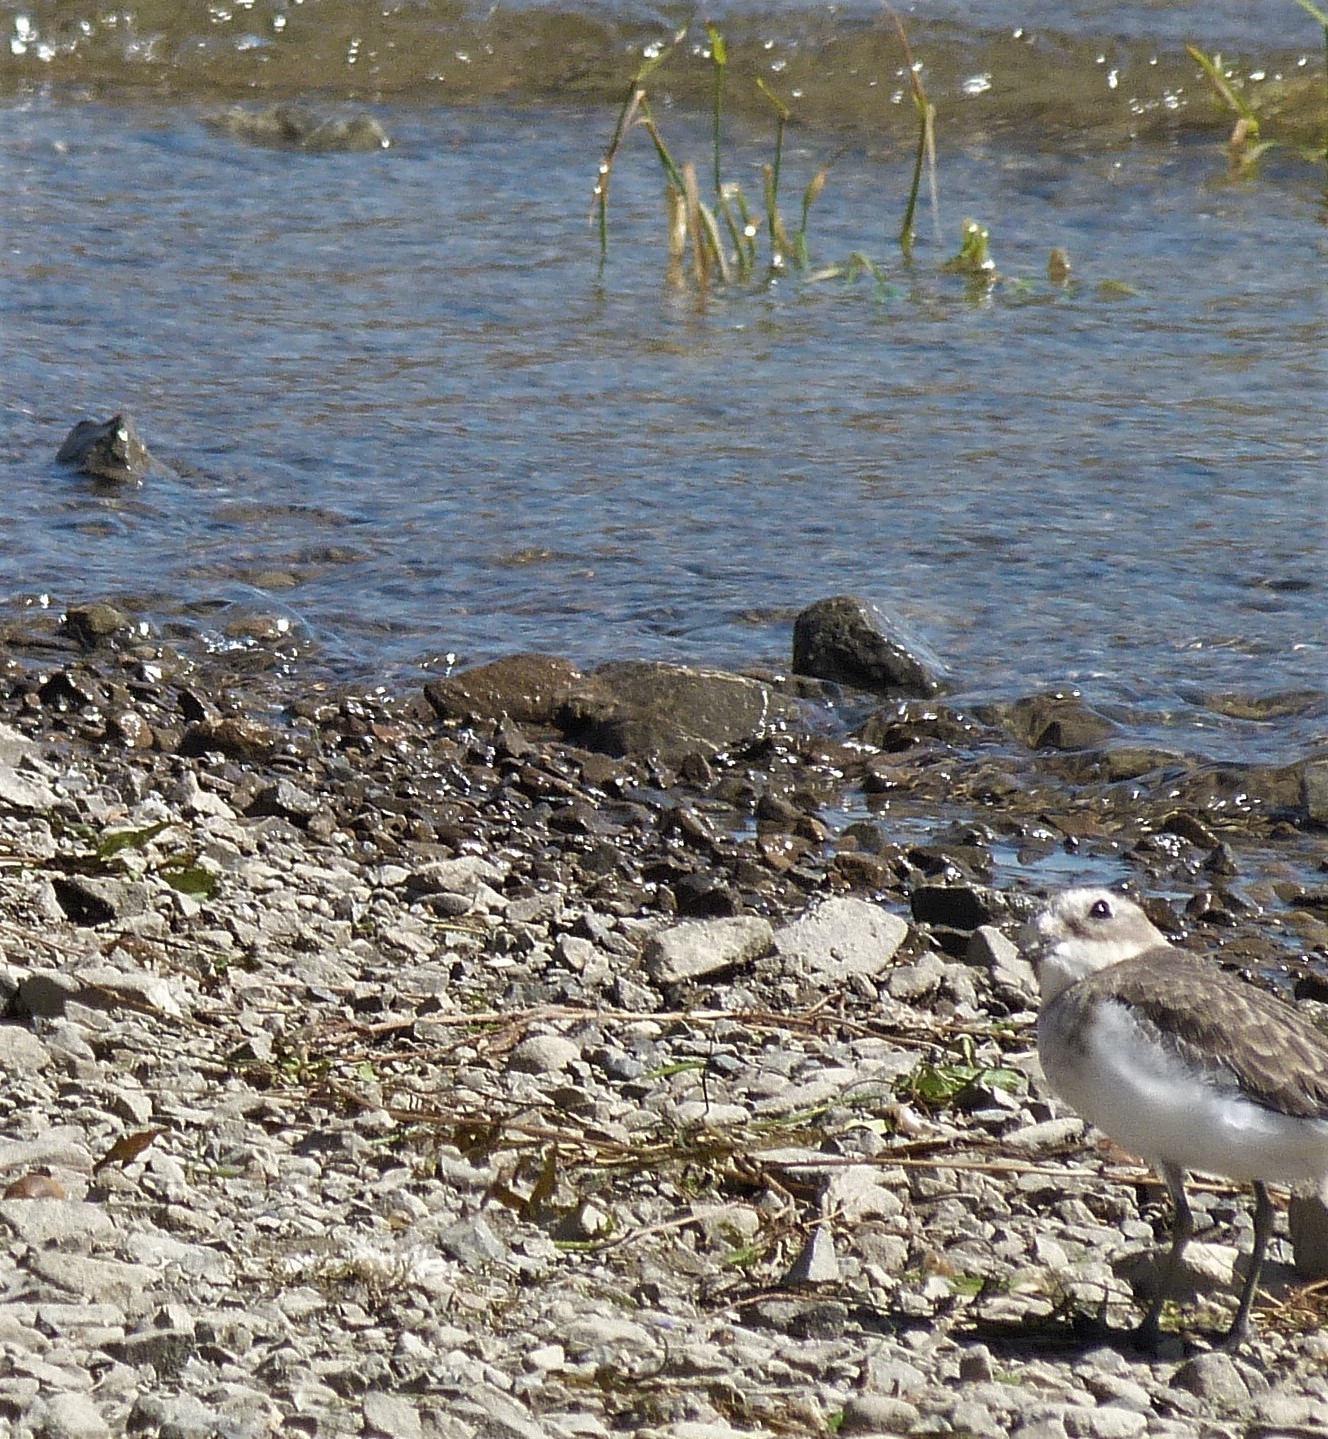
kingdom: Animalia
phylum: Chordata
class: Aves
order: Charadriiformes
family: Charadriidae
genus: Anarhynchus
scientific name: Anarhynchus
